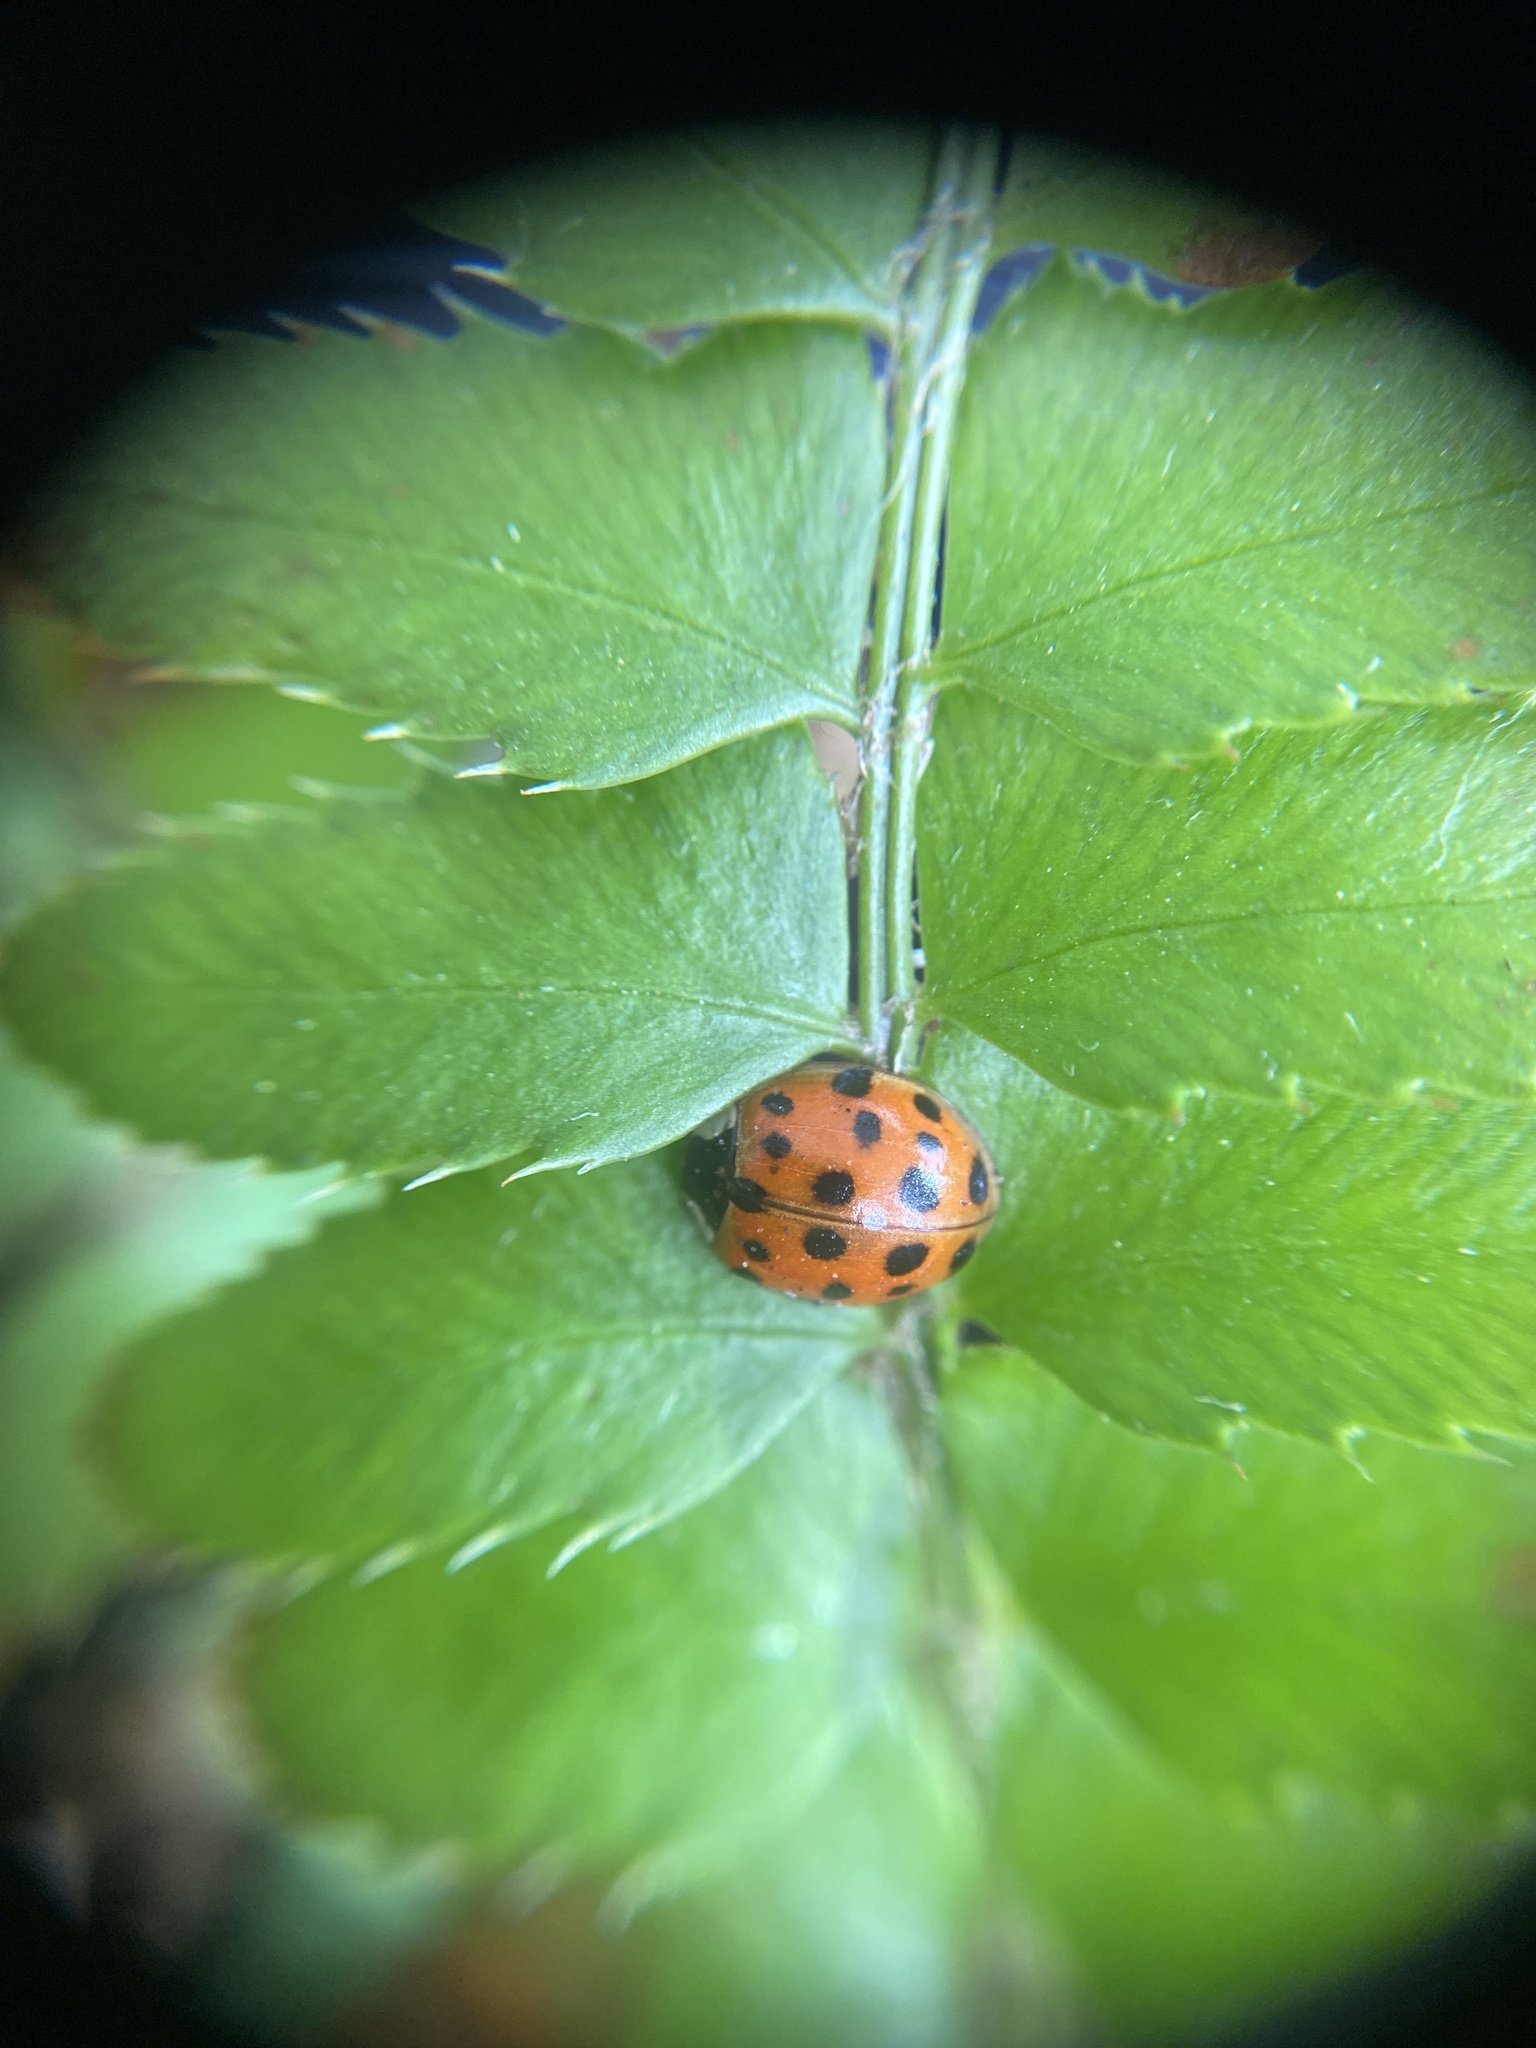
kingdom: Animalia
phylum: Arthropoda
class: Insecta
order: Coleoptera
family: Coccinellidae
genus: Harmonia
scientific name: Harmonia axyridis
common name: Harlequin ladybird
